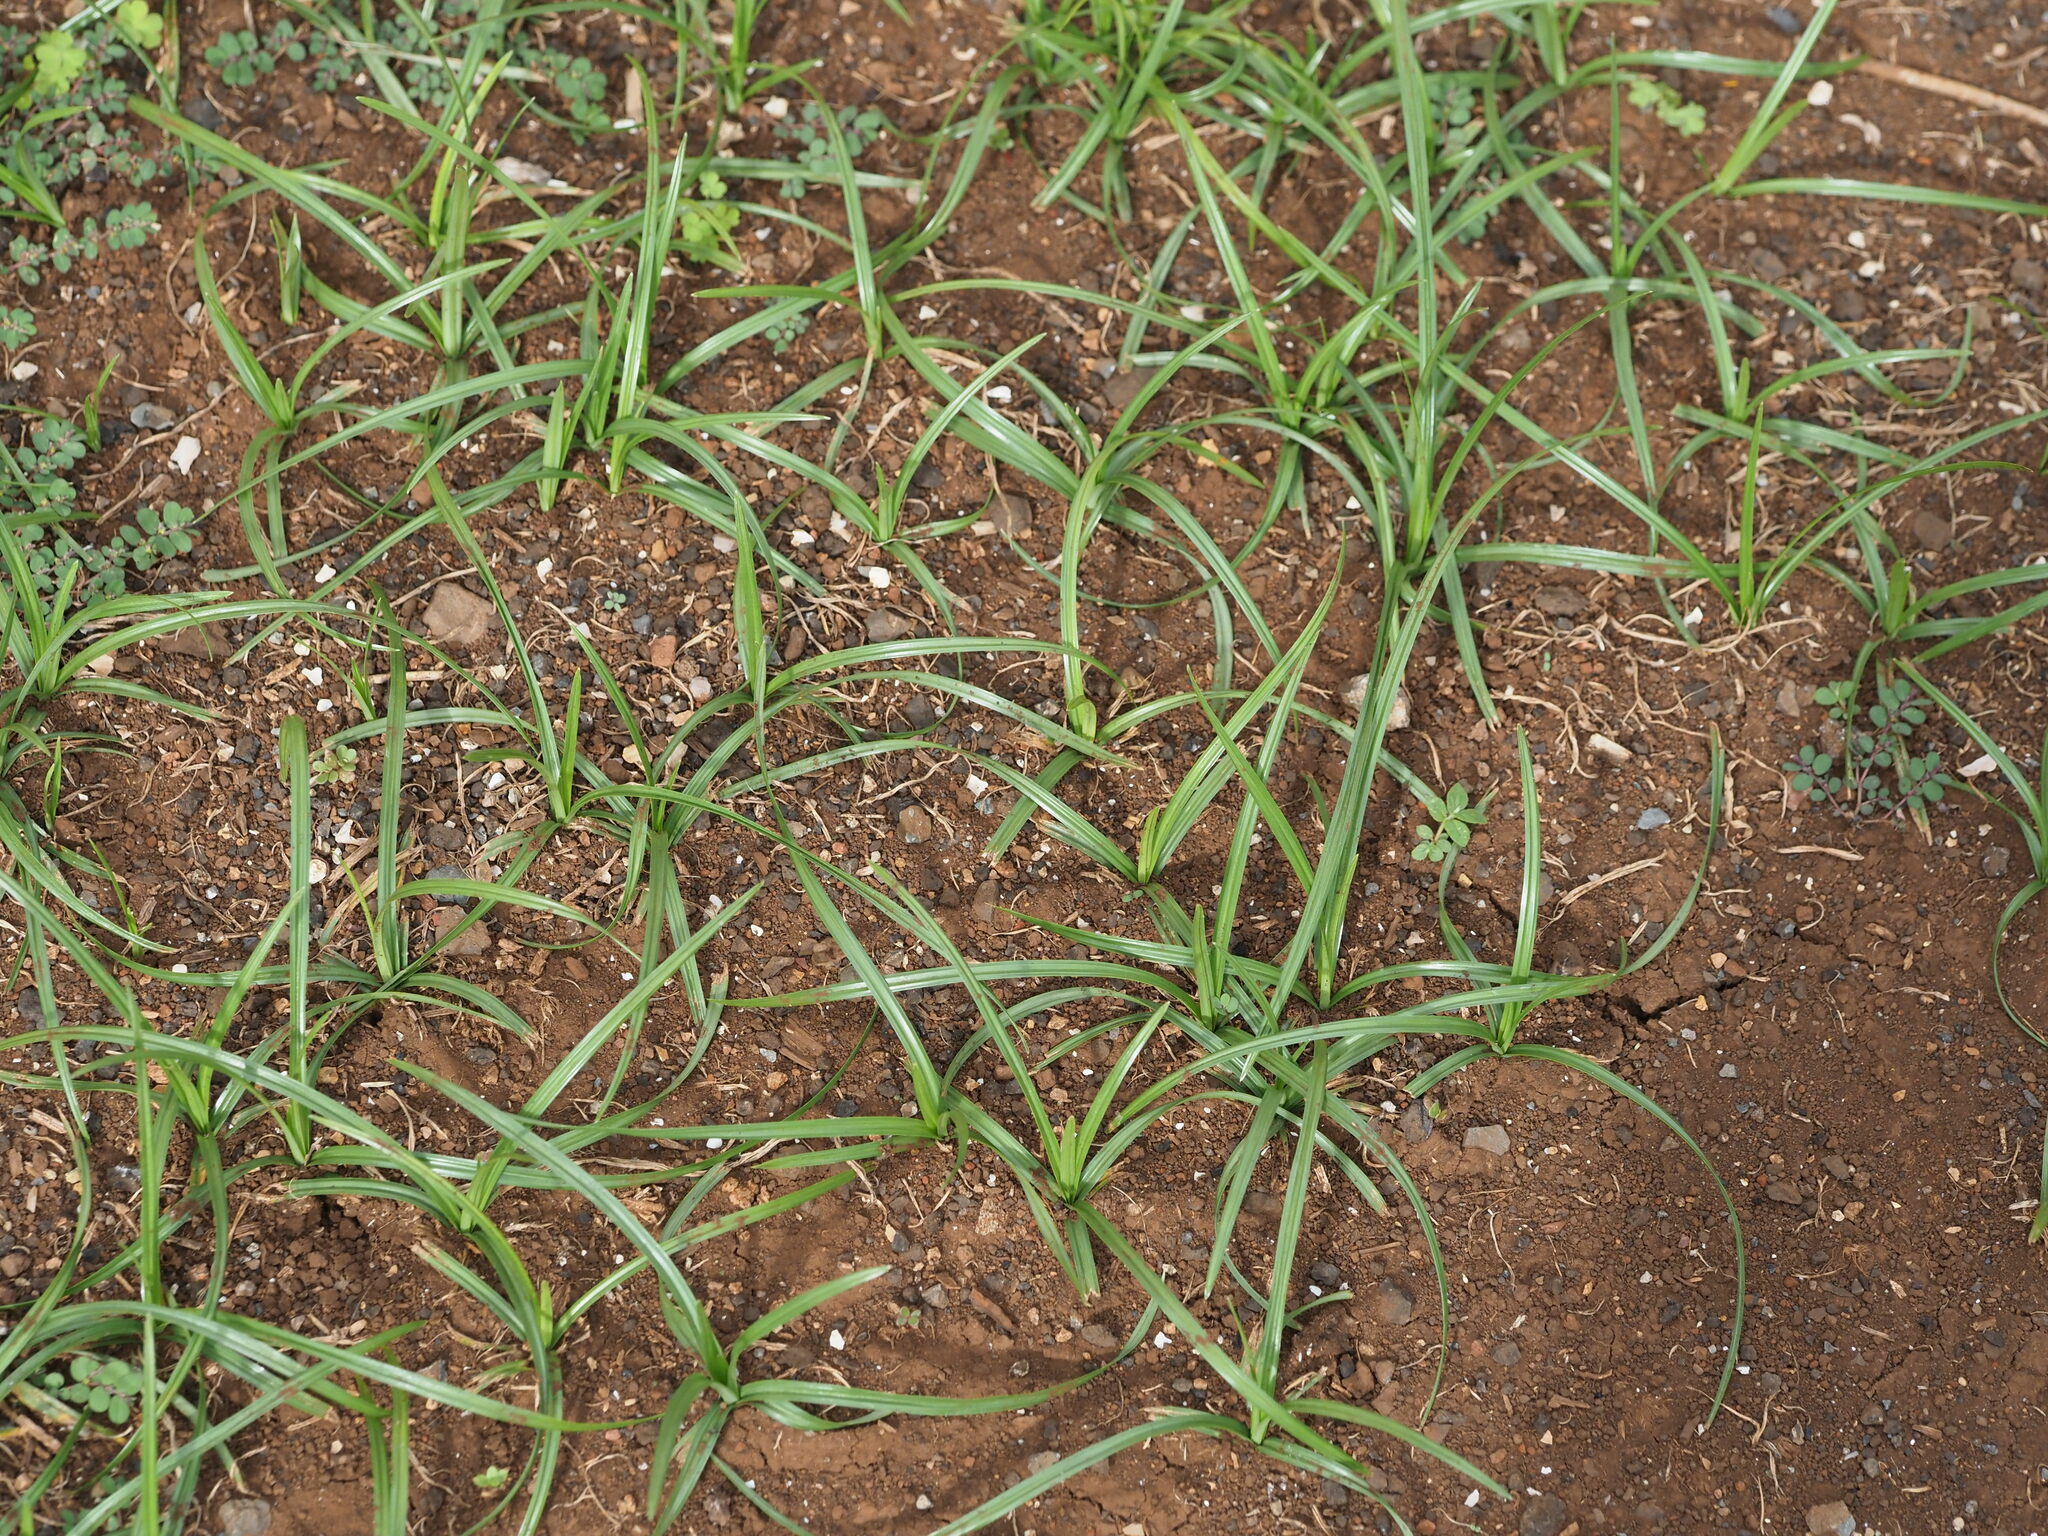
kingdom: Plantae
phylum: Tracheophyta
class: Liliopsida
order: Poales
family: Cyperaceae
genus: Cyperus
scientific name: Cyperus rotundus
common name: Nutgrass
